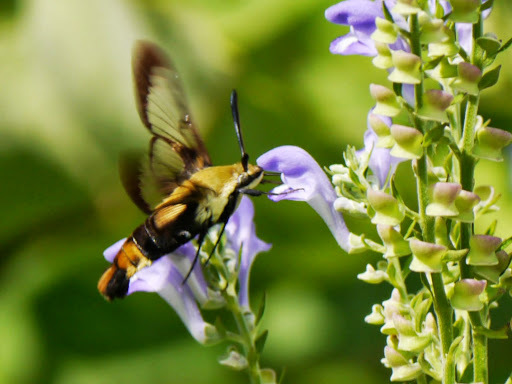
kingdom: Animalia
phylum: Arthropoda
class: Insecta
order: Lepidoptera
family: Sphingidae
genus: Hemaris
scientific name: Hemaris diffinis
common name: Bumblebee moth
